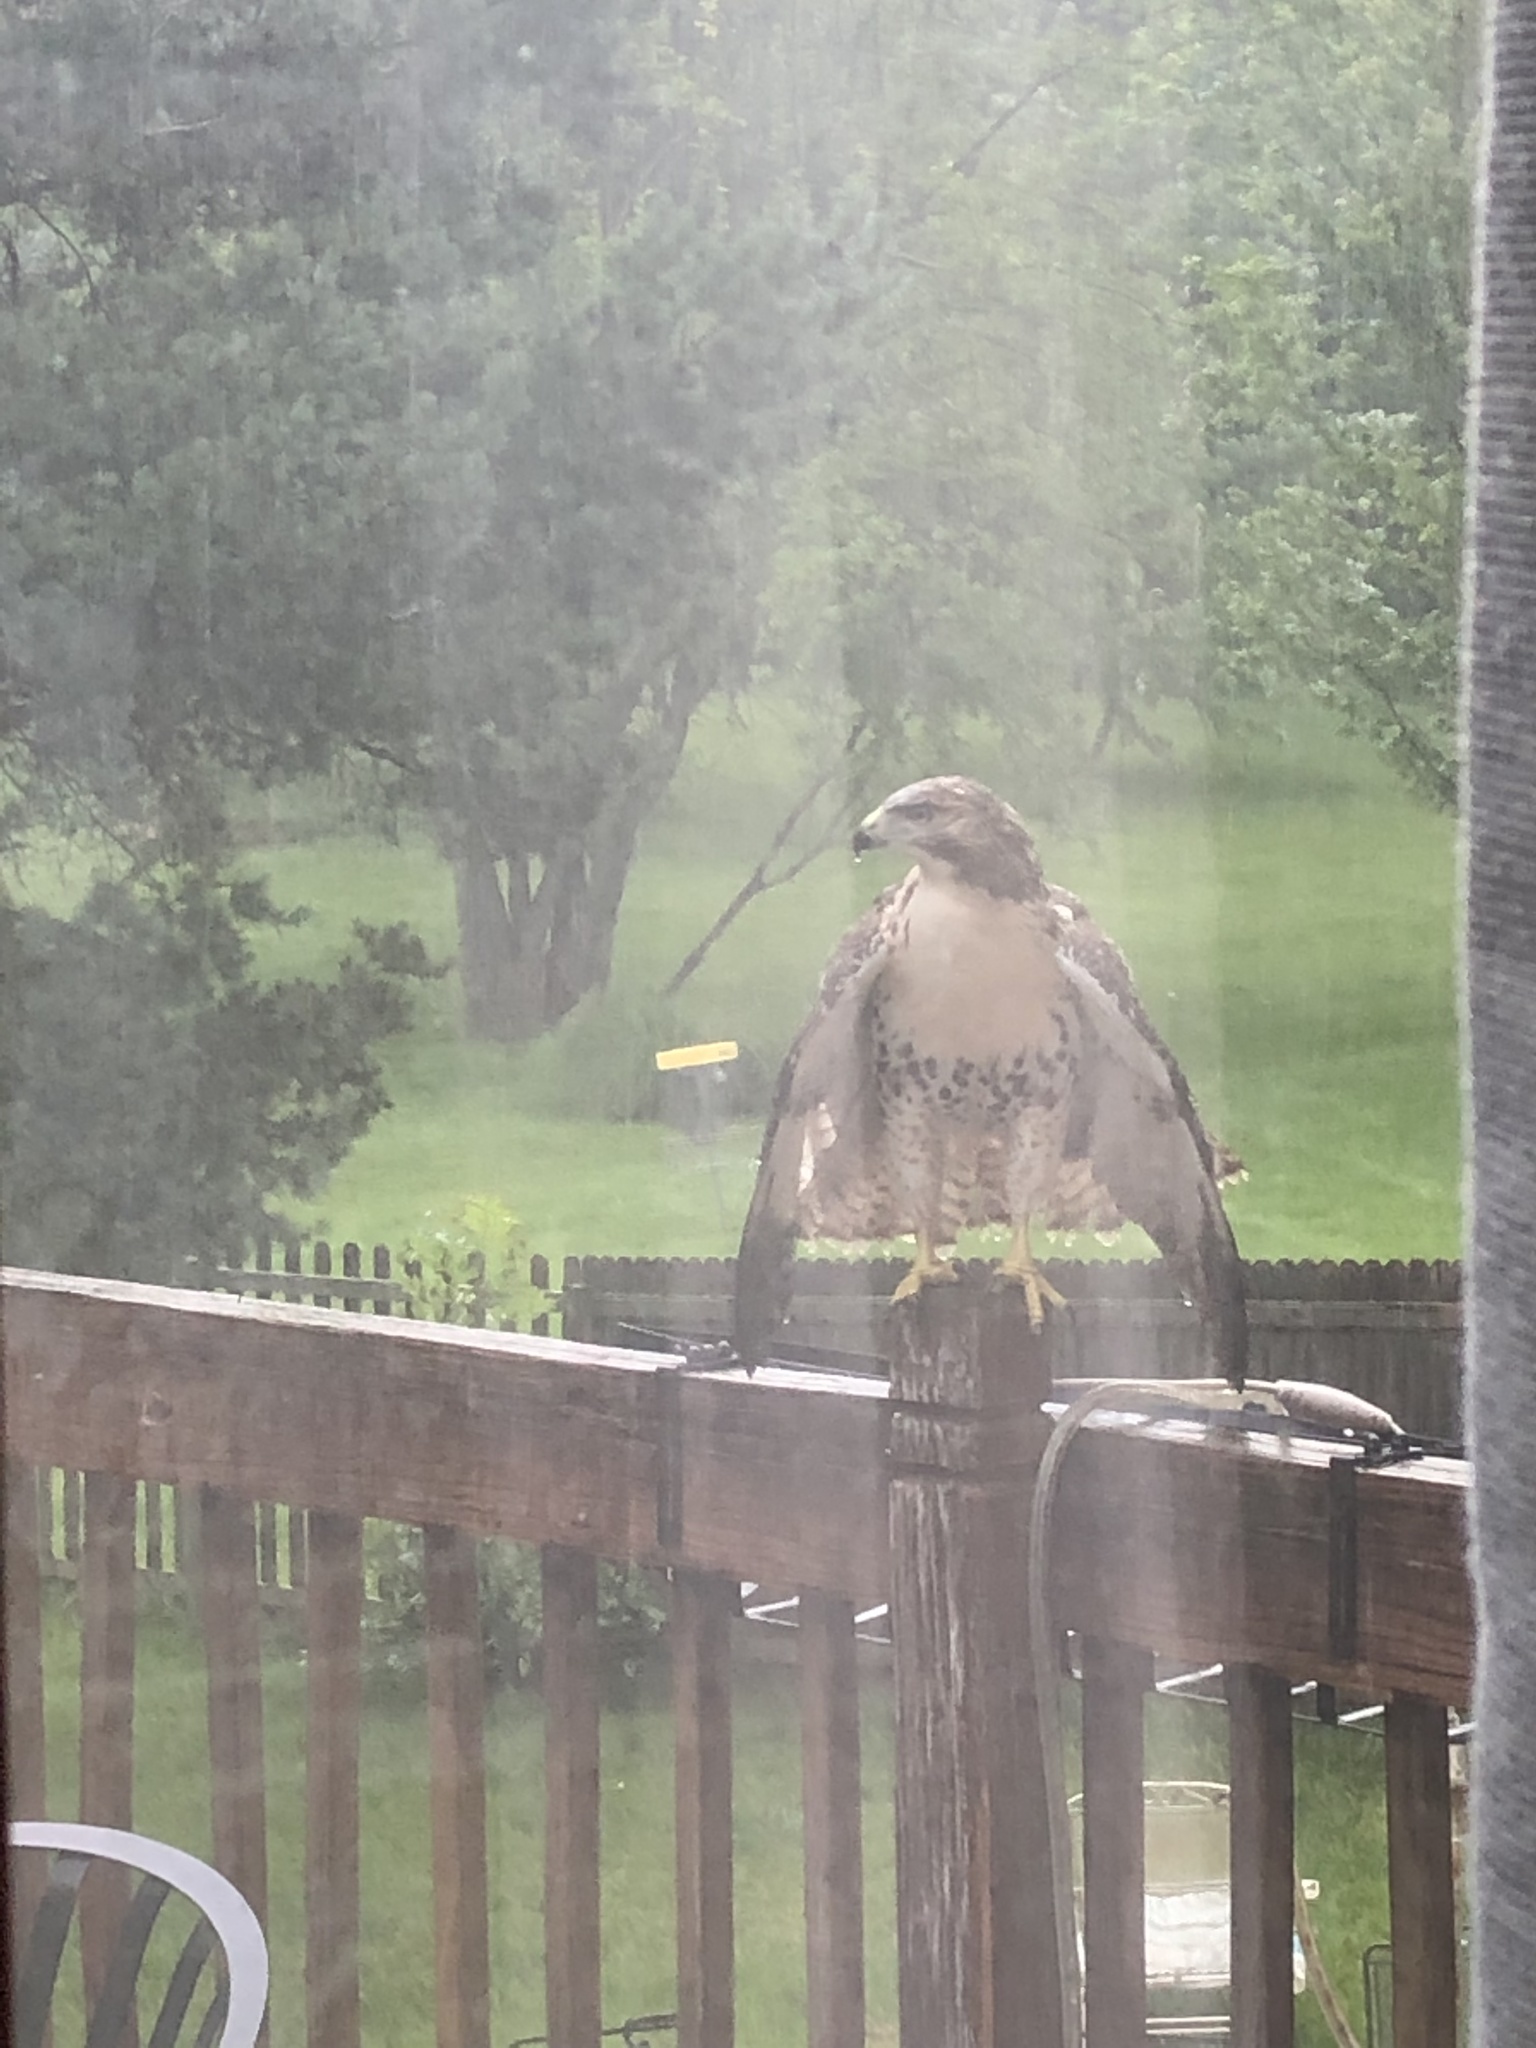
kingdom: Animalia
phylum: Chordata
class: Aves
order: Accipitriformes
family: Accipitridae
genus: Buteo
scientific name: Buteo jamaicensis
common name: Red-tailed hawk
